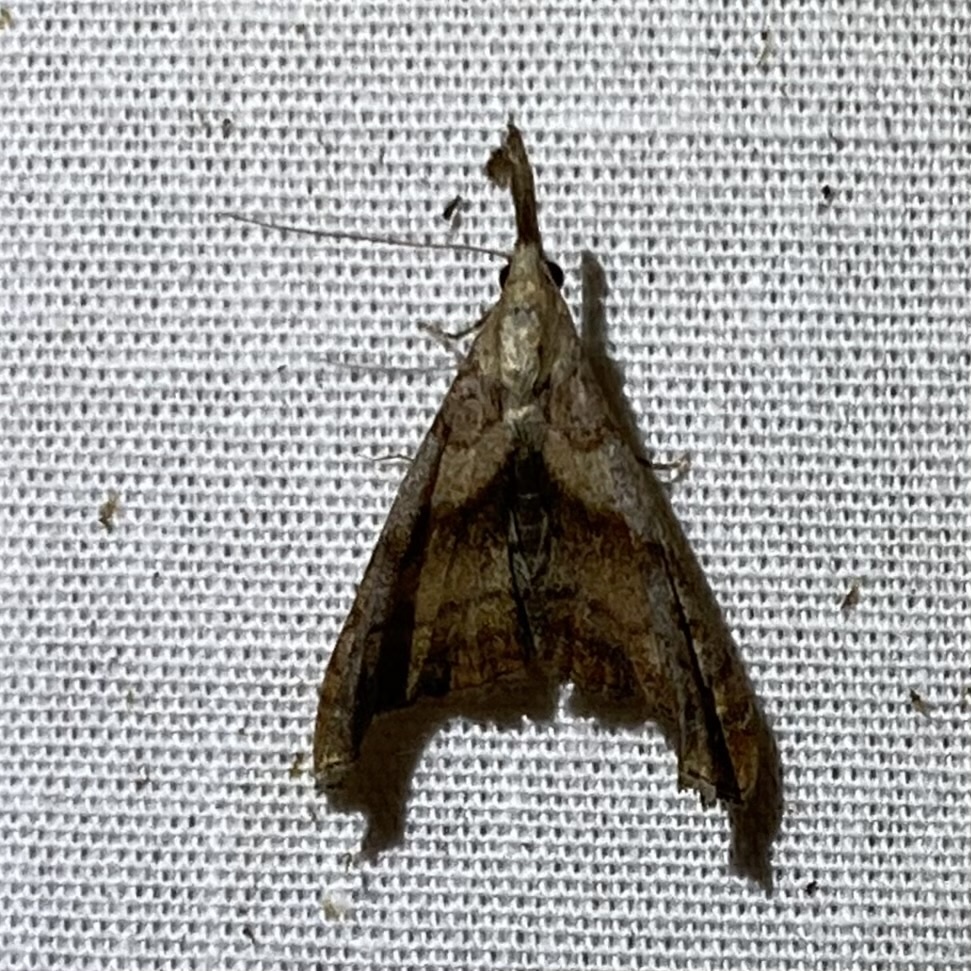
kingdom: Animalia
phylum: Arthropoda
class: Insecta
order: Lepidoptera
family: Erebidae
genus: Palthis
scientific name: Palthis angulalis
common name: Dark-spotted palthis moth
